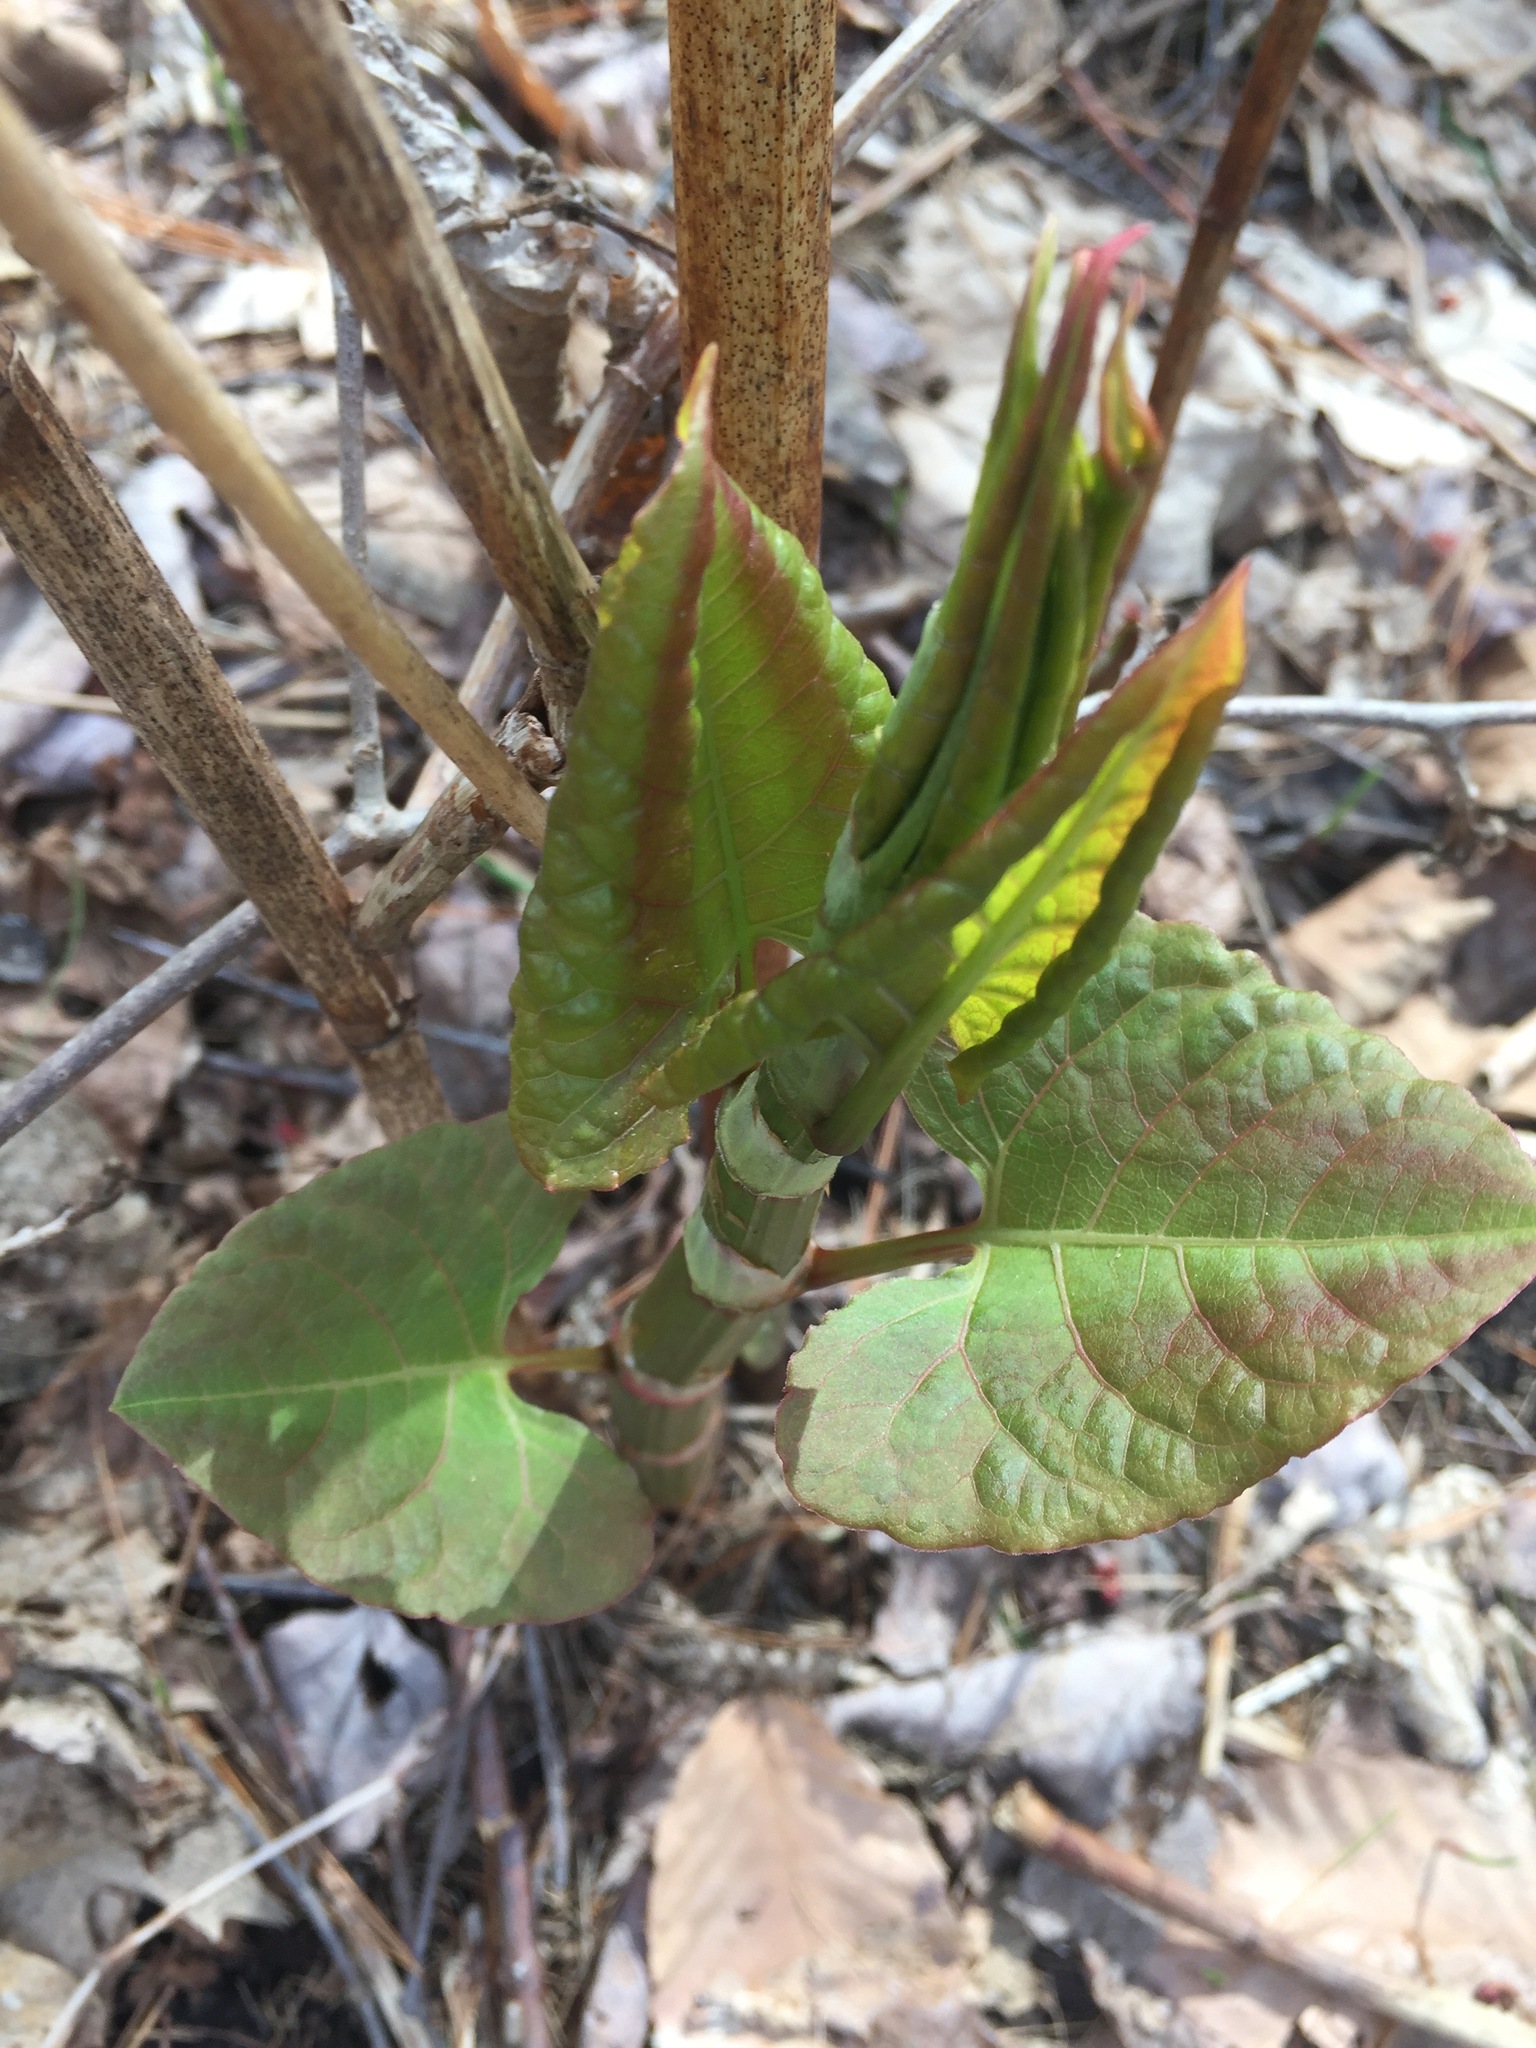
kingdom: Plantae
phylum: Tracheophyta
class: Magnoliopsida
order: Caryophyllales
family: Polygonaceae
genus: Reynoutria
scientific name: Reynoutria japonica
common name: Japanese knotweed
